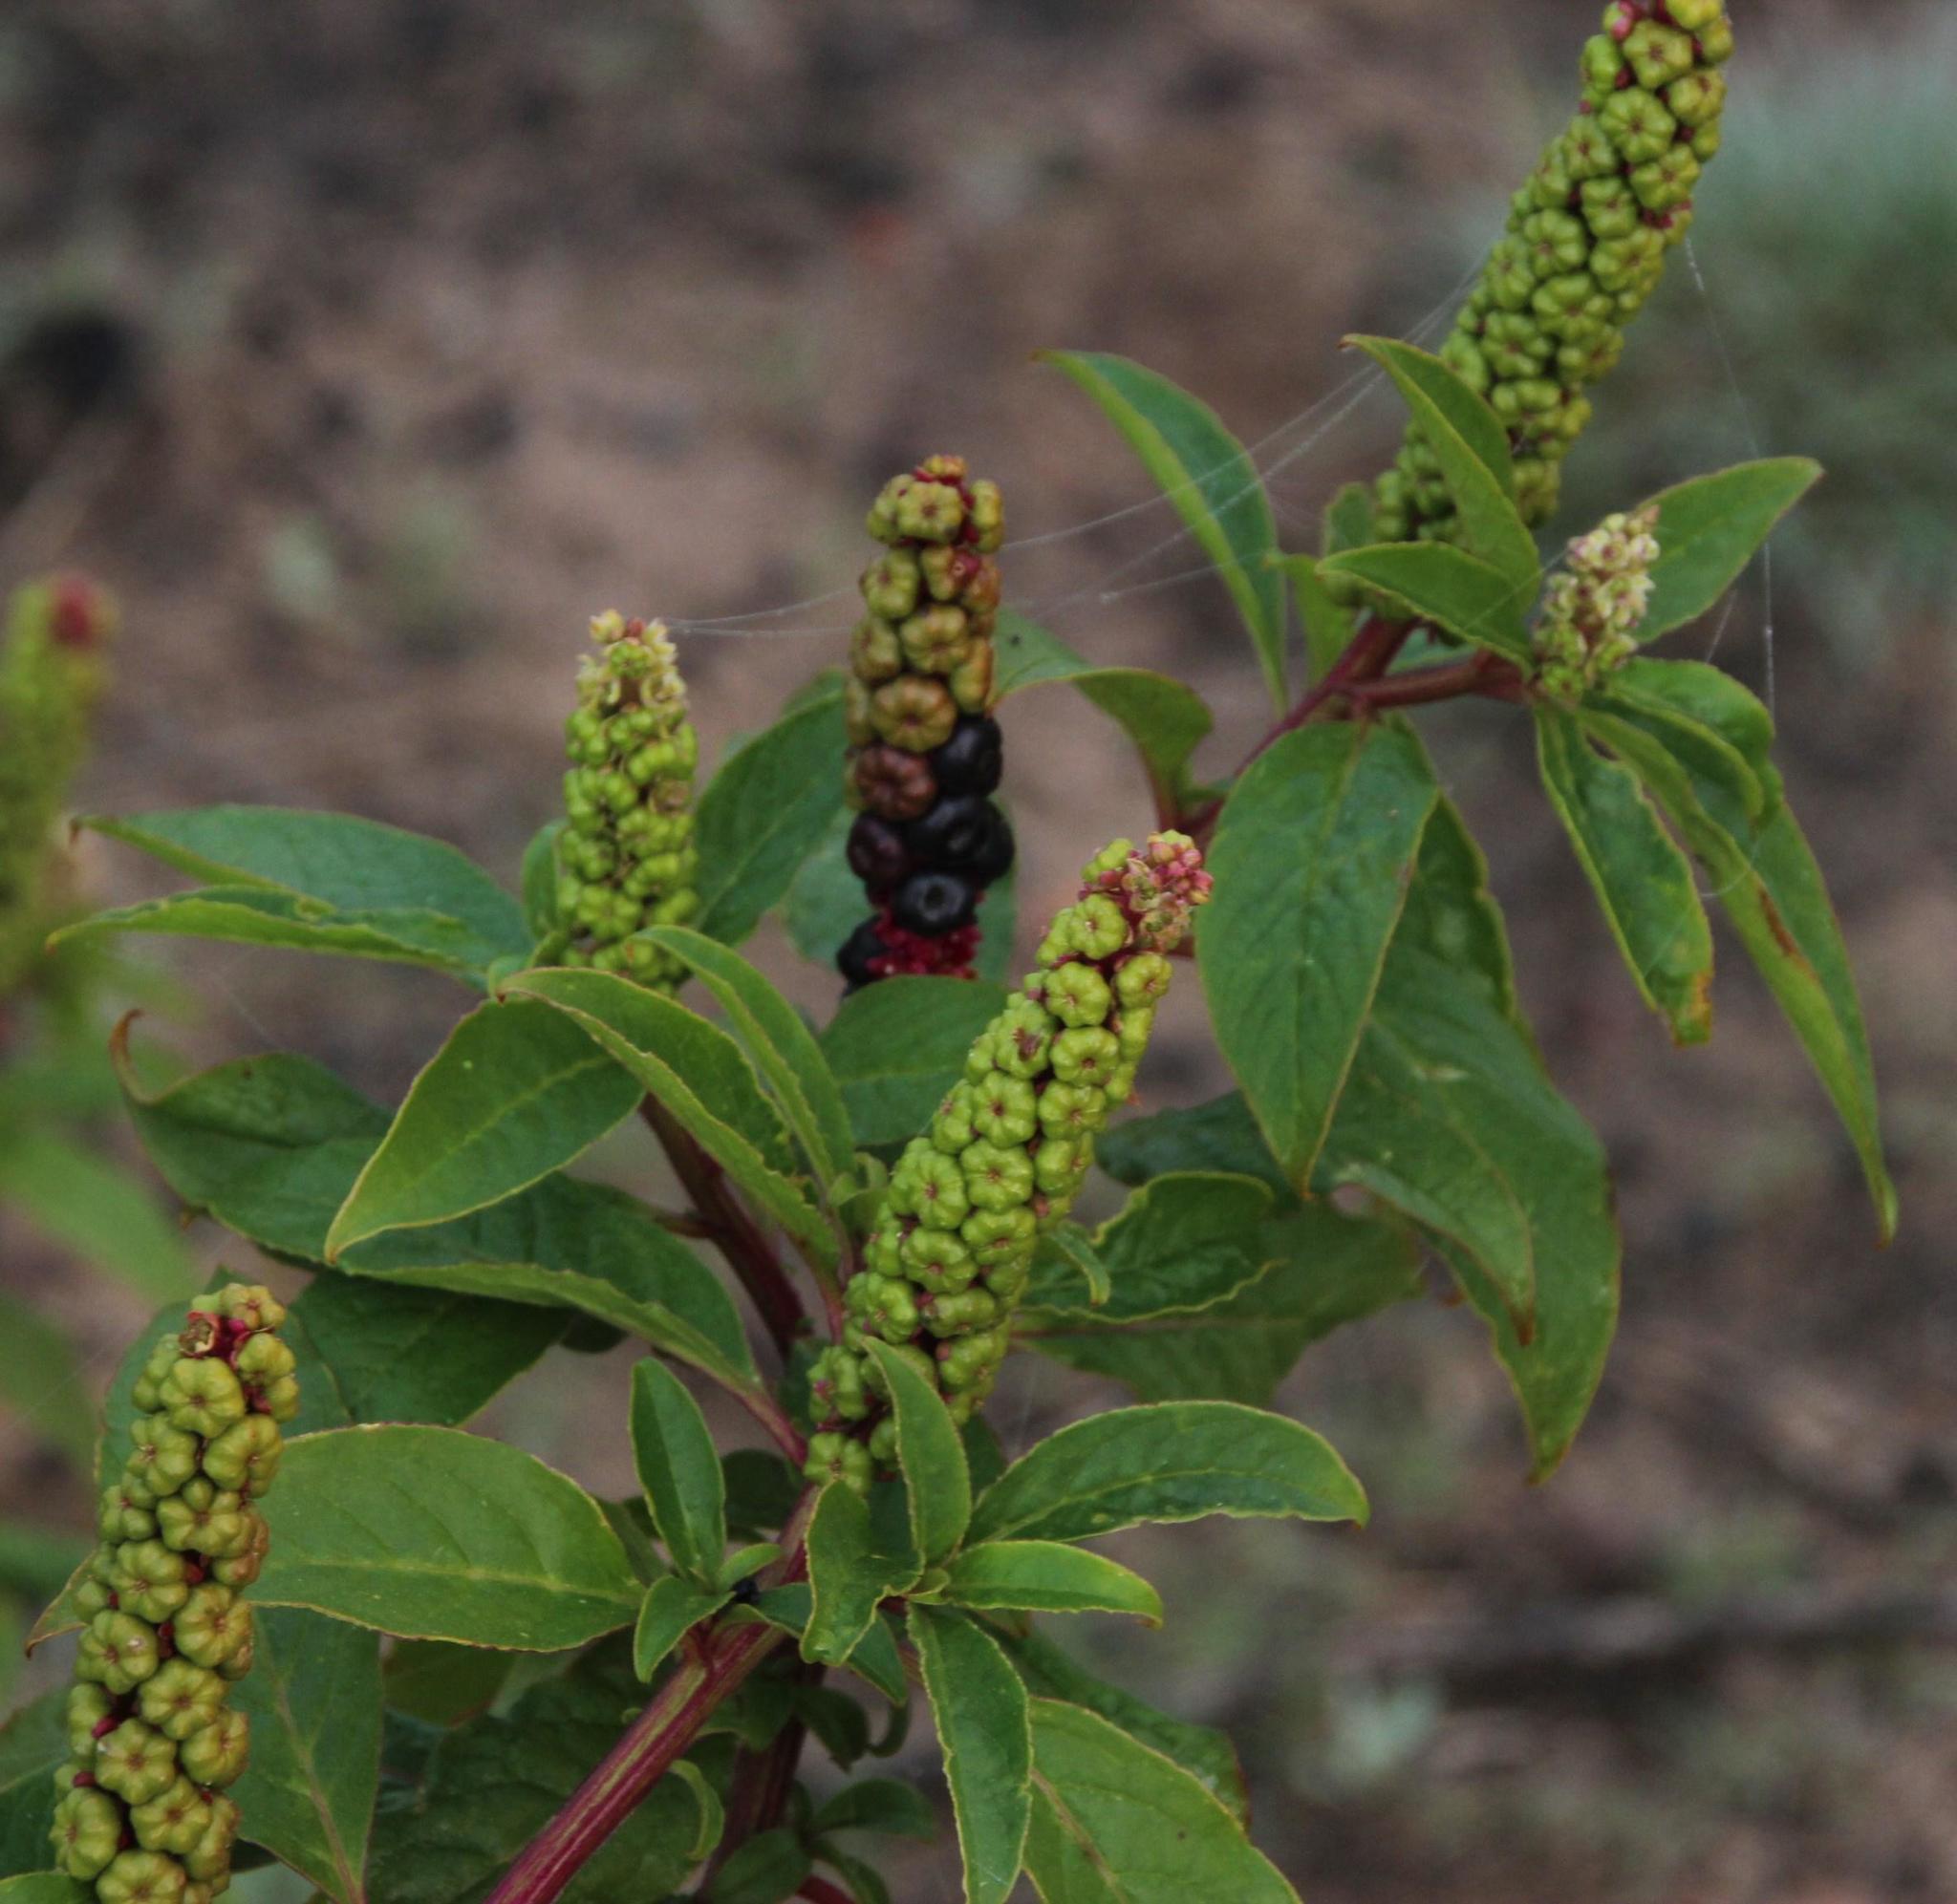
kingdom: Plantae
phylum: Tracheophyta
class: Magnoliopsida
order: Caryophyllales
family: Phytolaccaceae
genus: Phytolacca
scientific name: Phytolacca icosandra
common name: Button pokeweed
